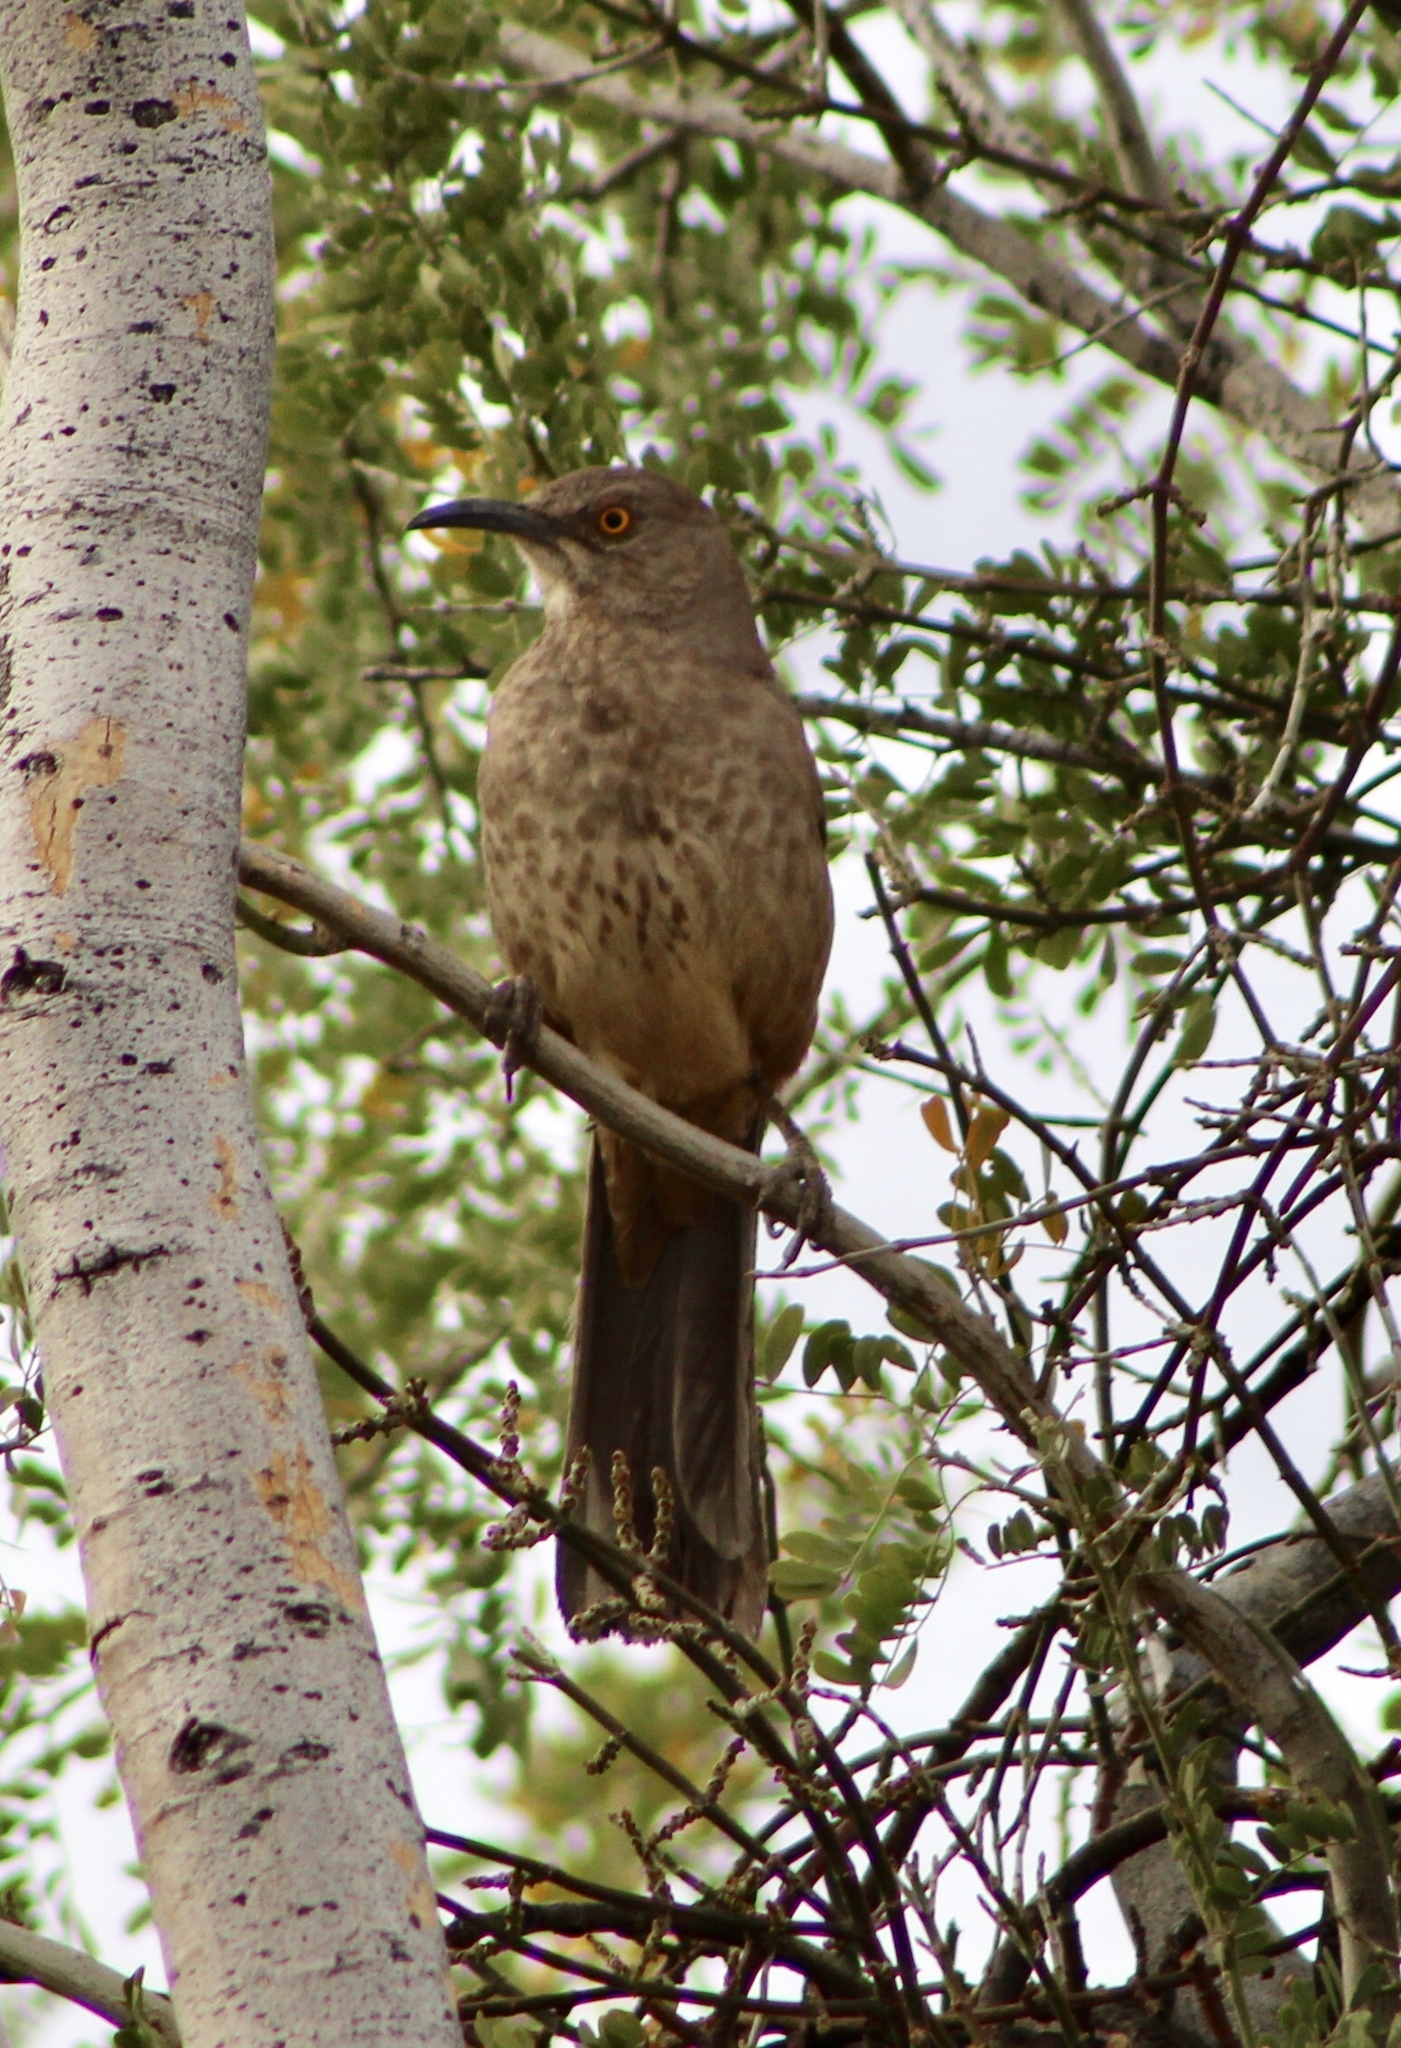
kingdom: Animalia
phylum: Chordata
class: Aves
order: Passeriformes
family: Mimidae
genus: Toxostoma
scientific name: Toxostoma curvirostre
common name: Curve-billed thrasher
